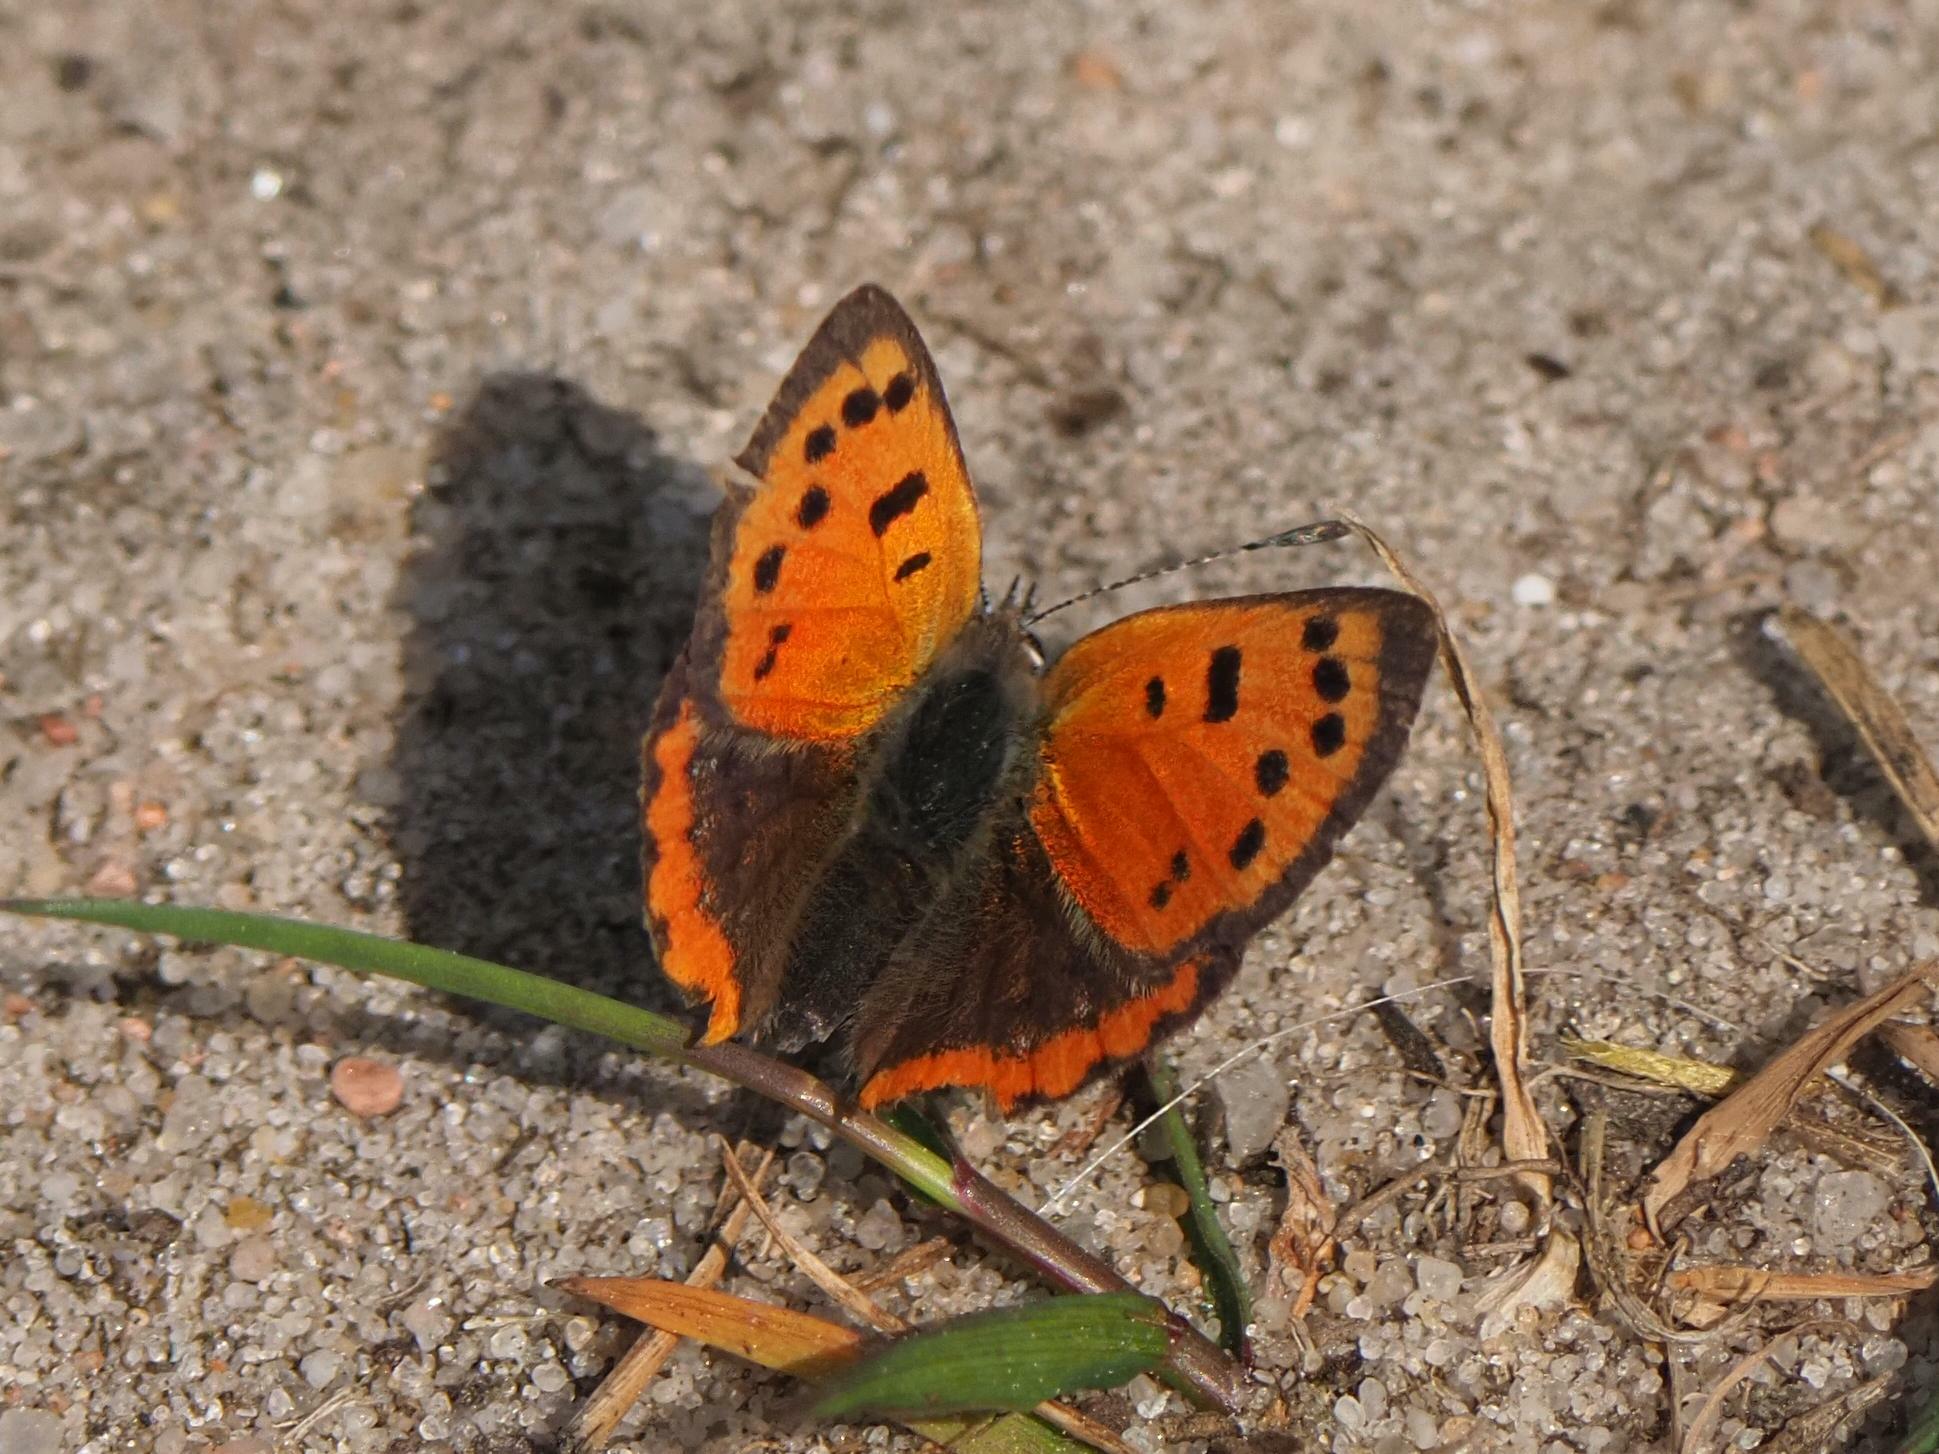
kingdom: Animalia
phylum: Arthropoda
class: Insecta
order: Lepidoptera
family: Lycaenidae
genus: Lycaena
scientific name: Lycaena phlaeas
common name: Small copper
